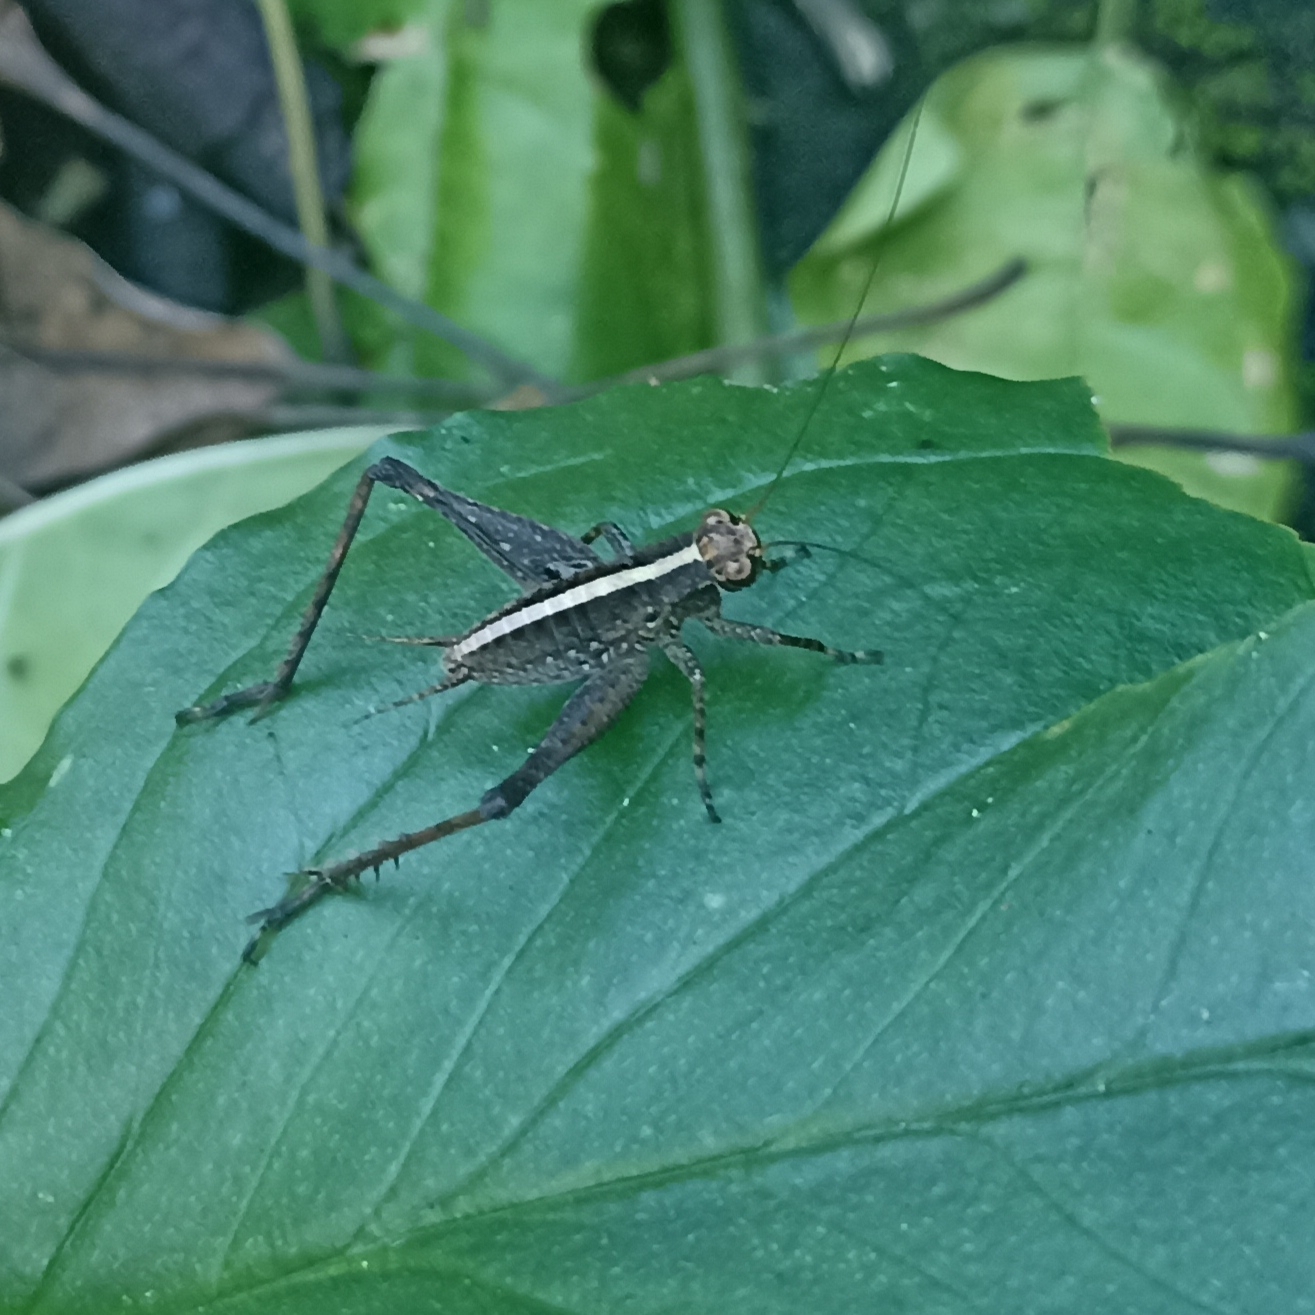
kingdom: Animalia
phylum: Arthropoda
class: Insecta
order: Orthoptera
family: Gryllidae
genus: Eneoptera
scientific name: Eneoptera surinamensis
